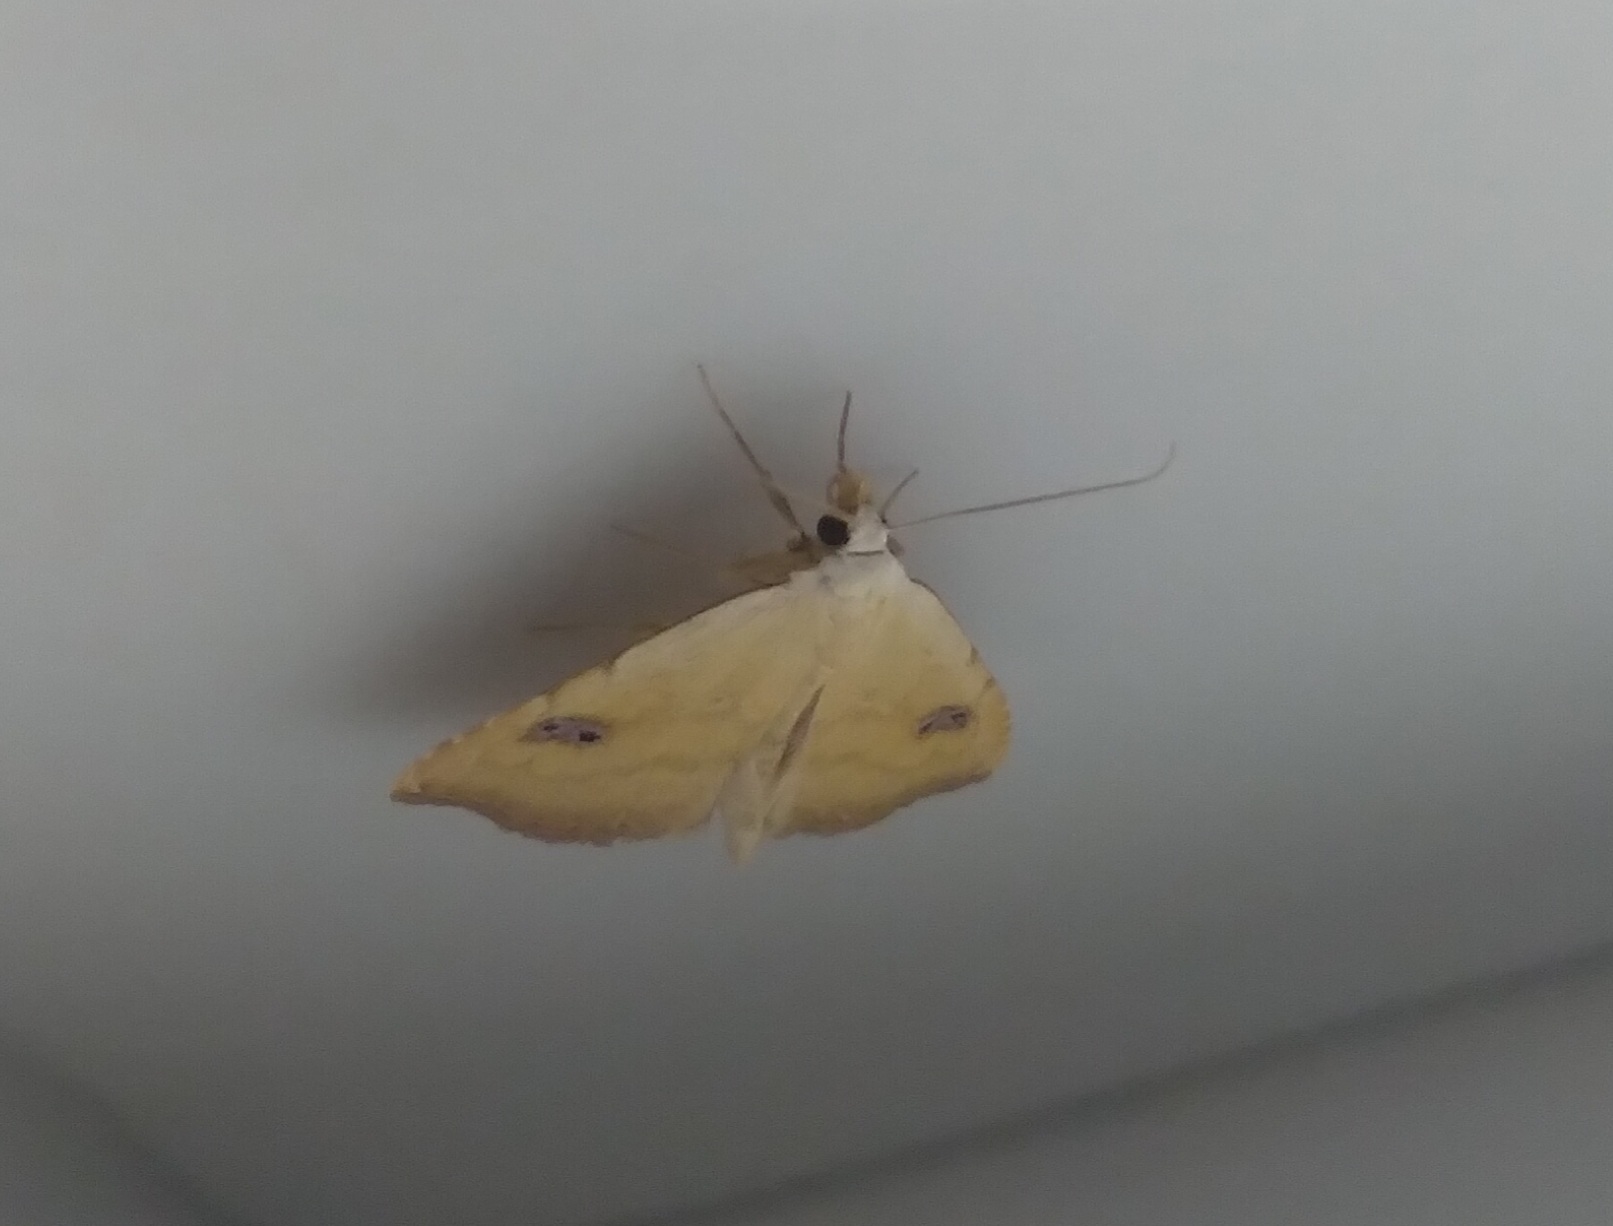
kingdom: Animalia
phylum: Arthropoda
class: Insecta
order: Lepidoptera
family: Erebidae
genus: Rivula
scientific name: Rivula sericealis
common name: Straw dot
